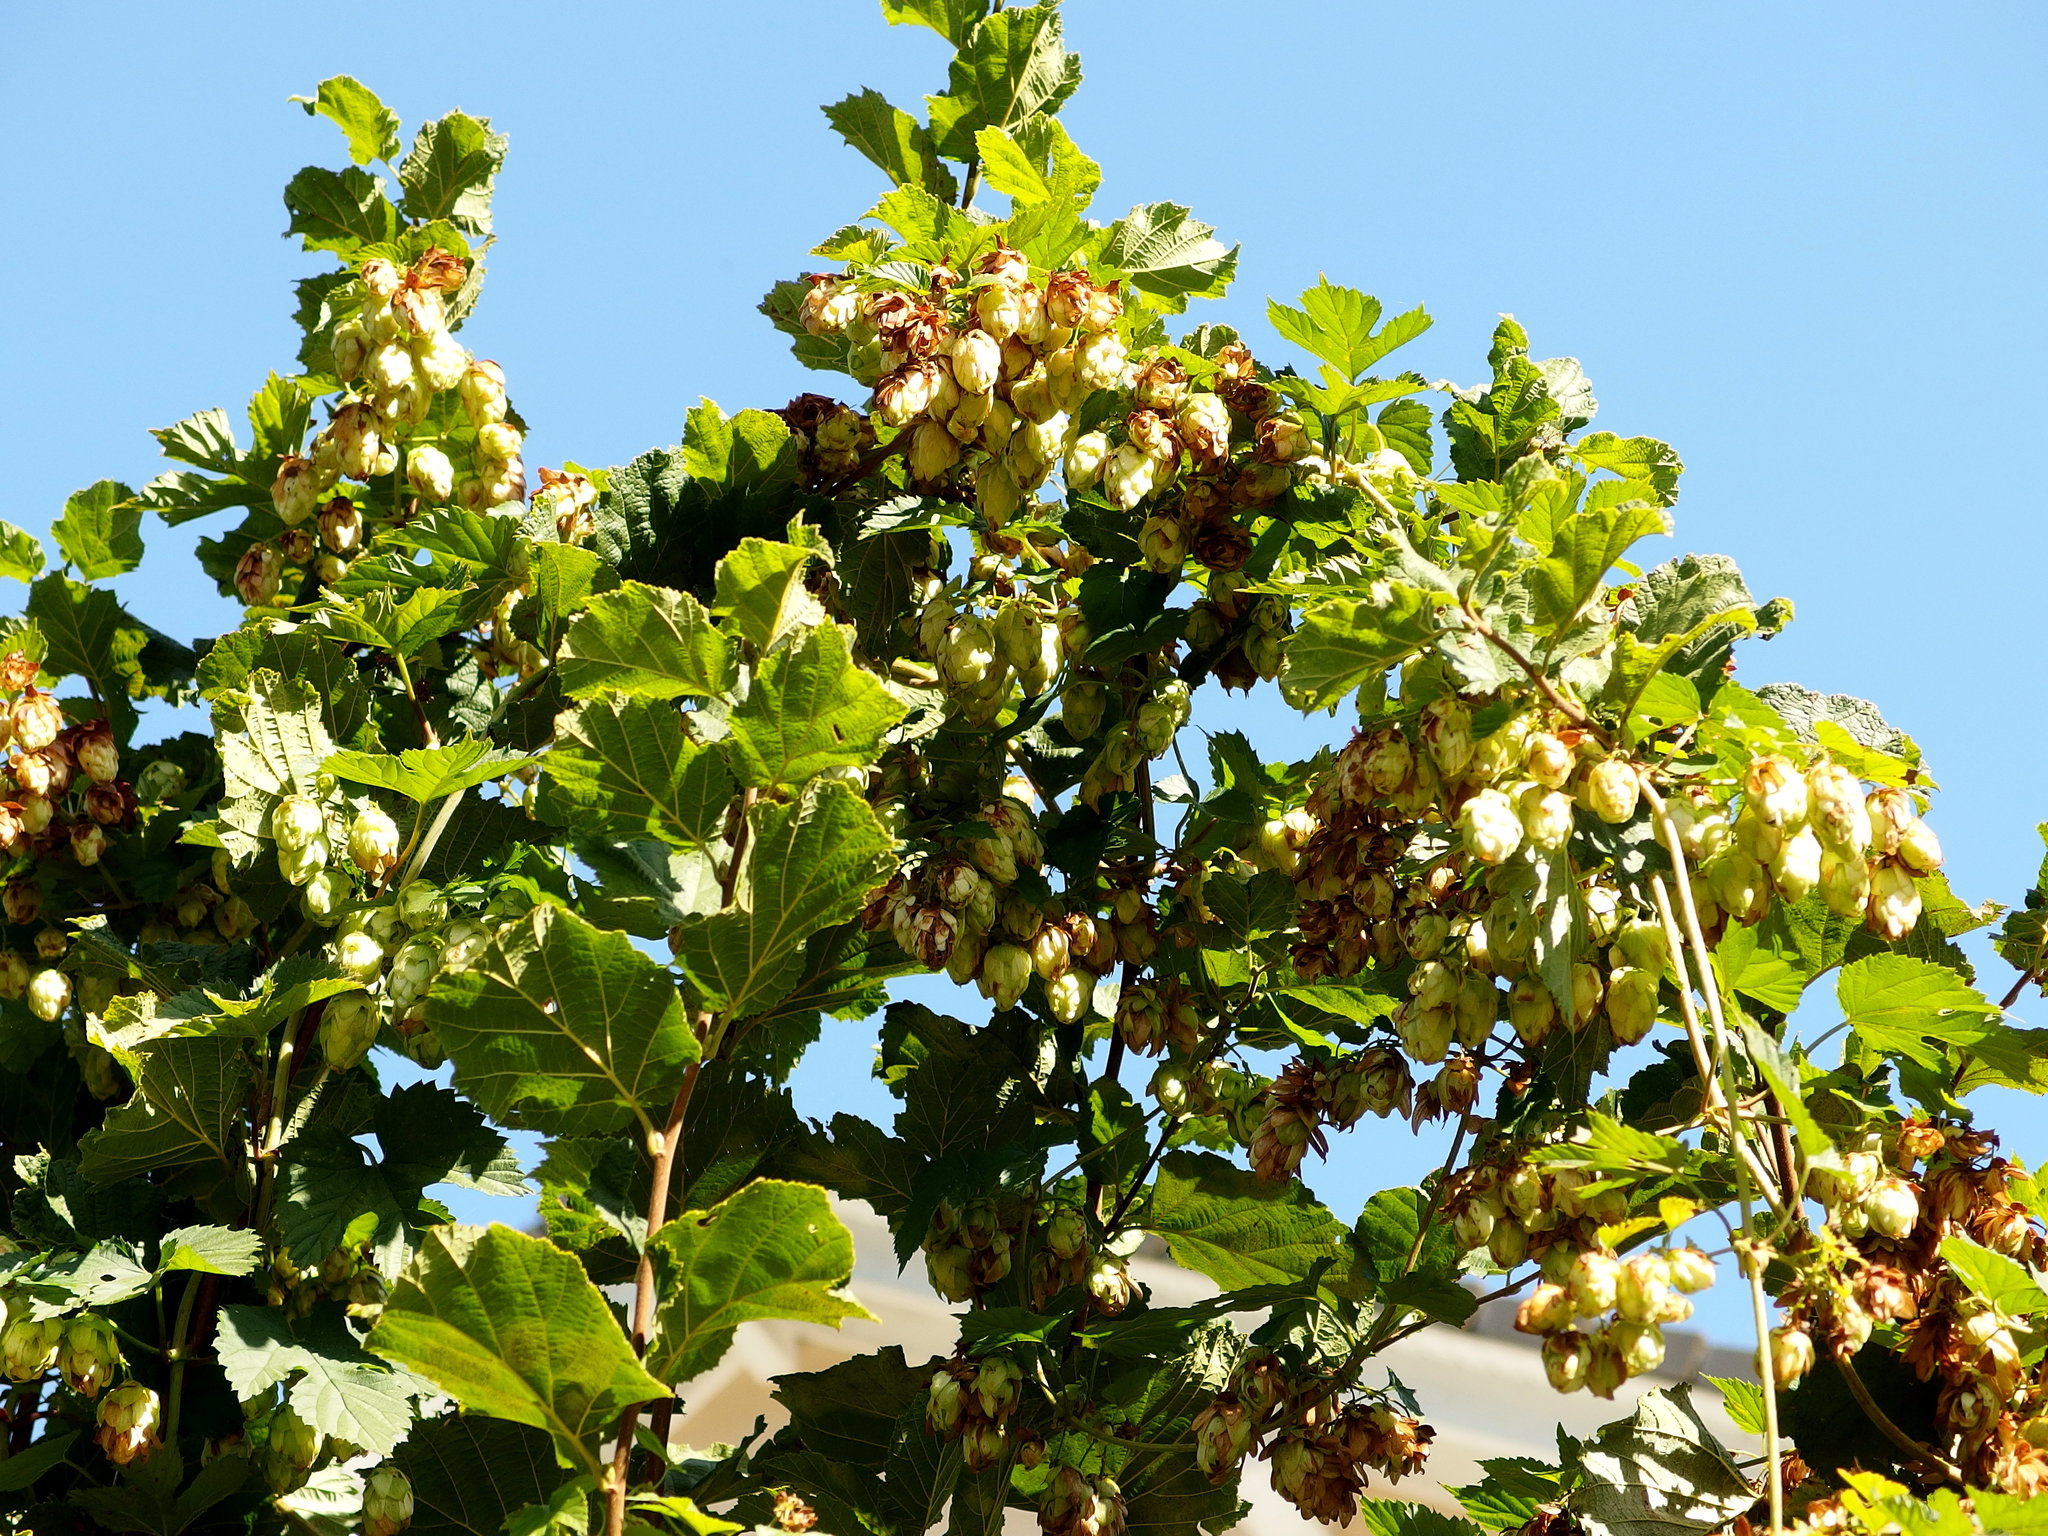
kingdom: Plantae
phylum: Tracheophyta
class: Magnoliopsida
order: Rosales
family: Cannabaceae
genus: Humulus
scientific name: Humulus lupulus
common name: Hop
